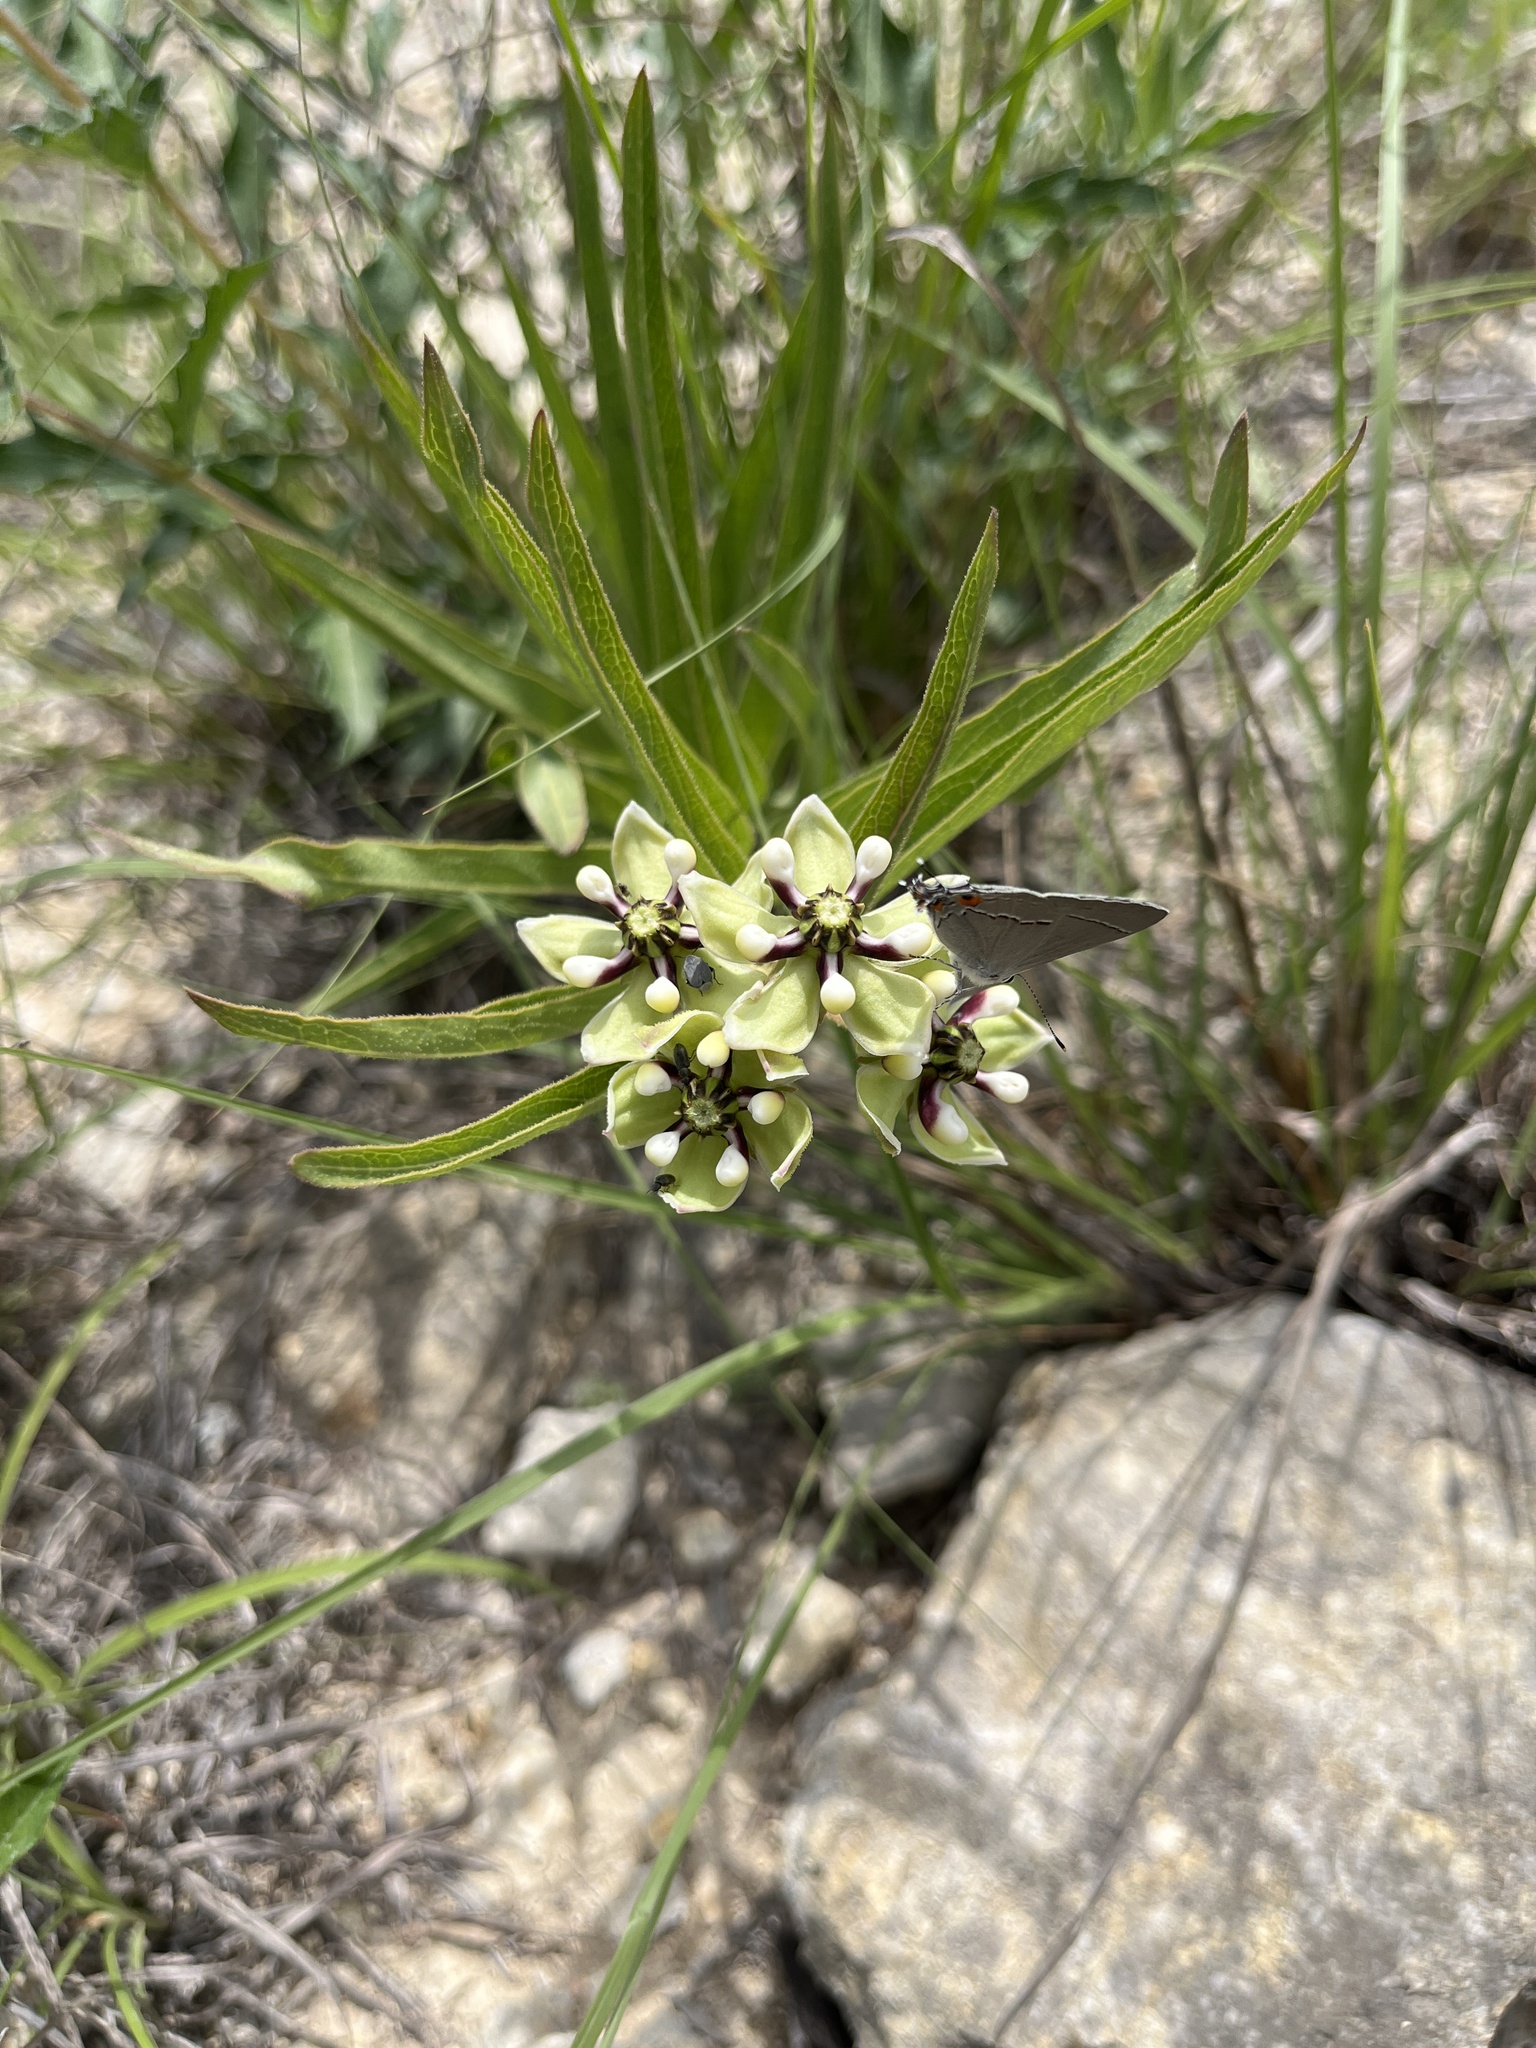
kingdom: Plantae
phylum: Tracheophyta
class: Magnoliopsida
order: Gentianales
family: Apocynaceae
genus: Asclepias
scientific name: Asclepias asperula
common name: Antelope horns
